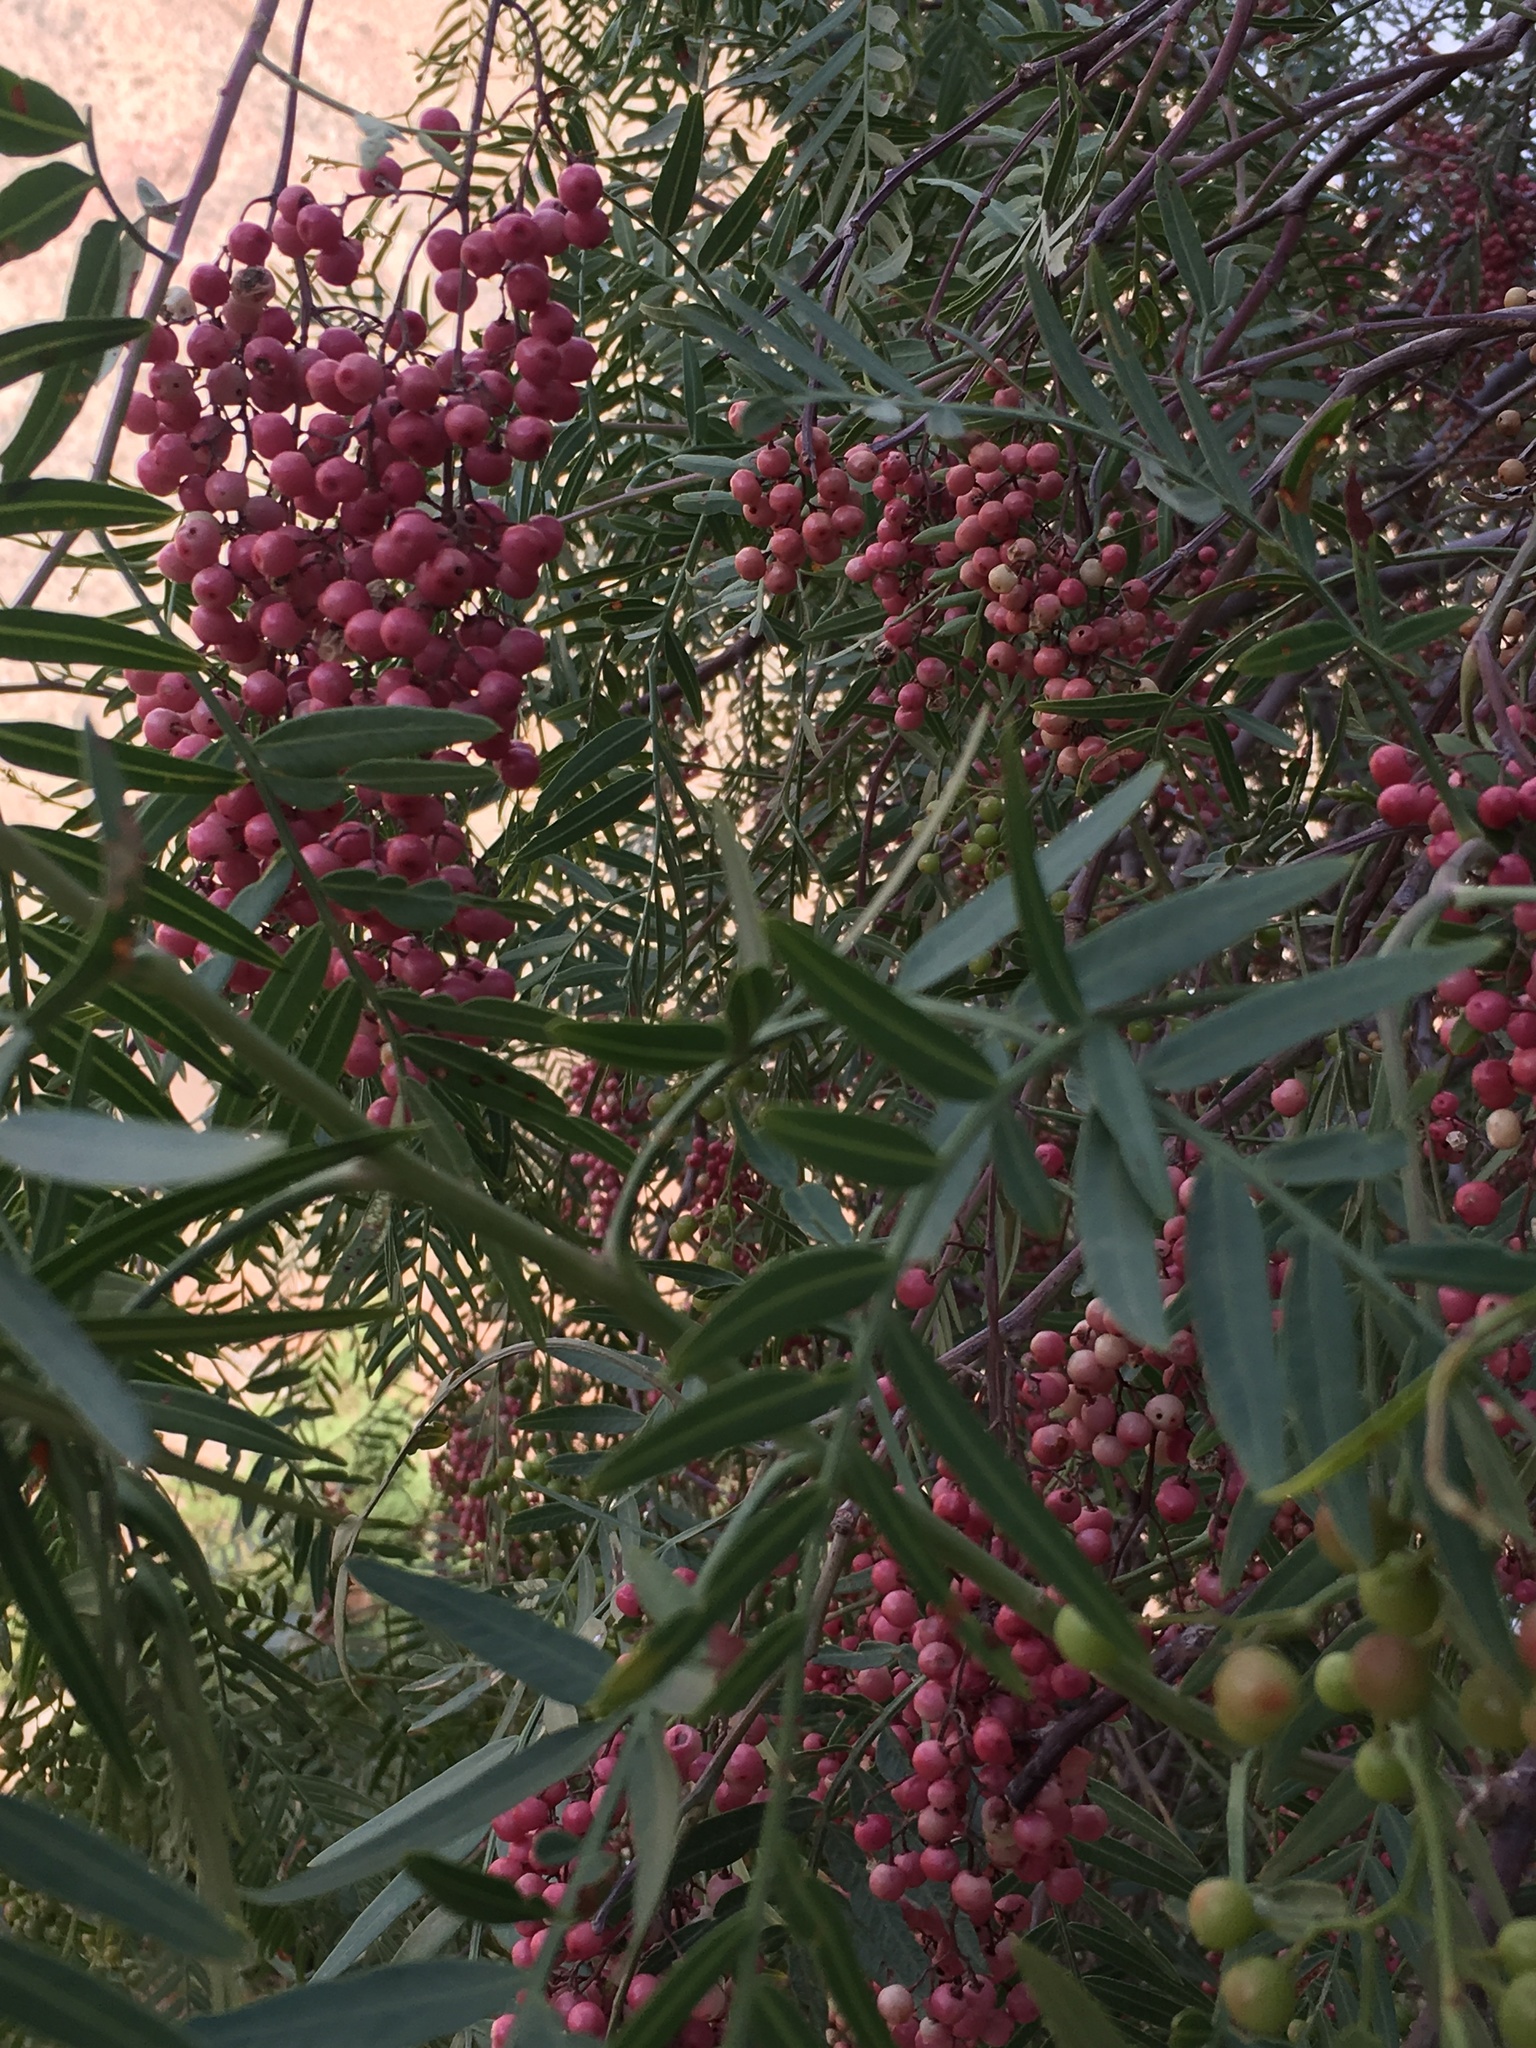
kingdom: Plantae
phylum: Tracheophyta
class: Magnoliopsida
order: Sapindales
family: Anacardiaceae
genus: Schinus
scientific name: Schinus areira
